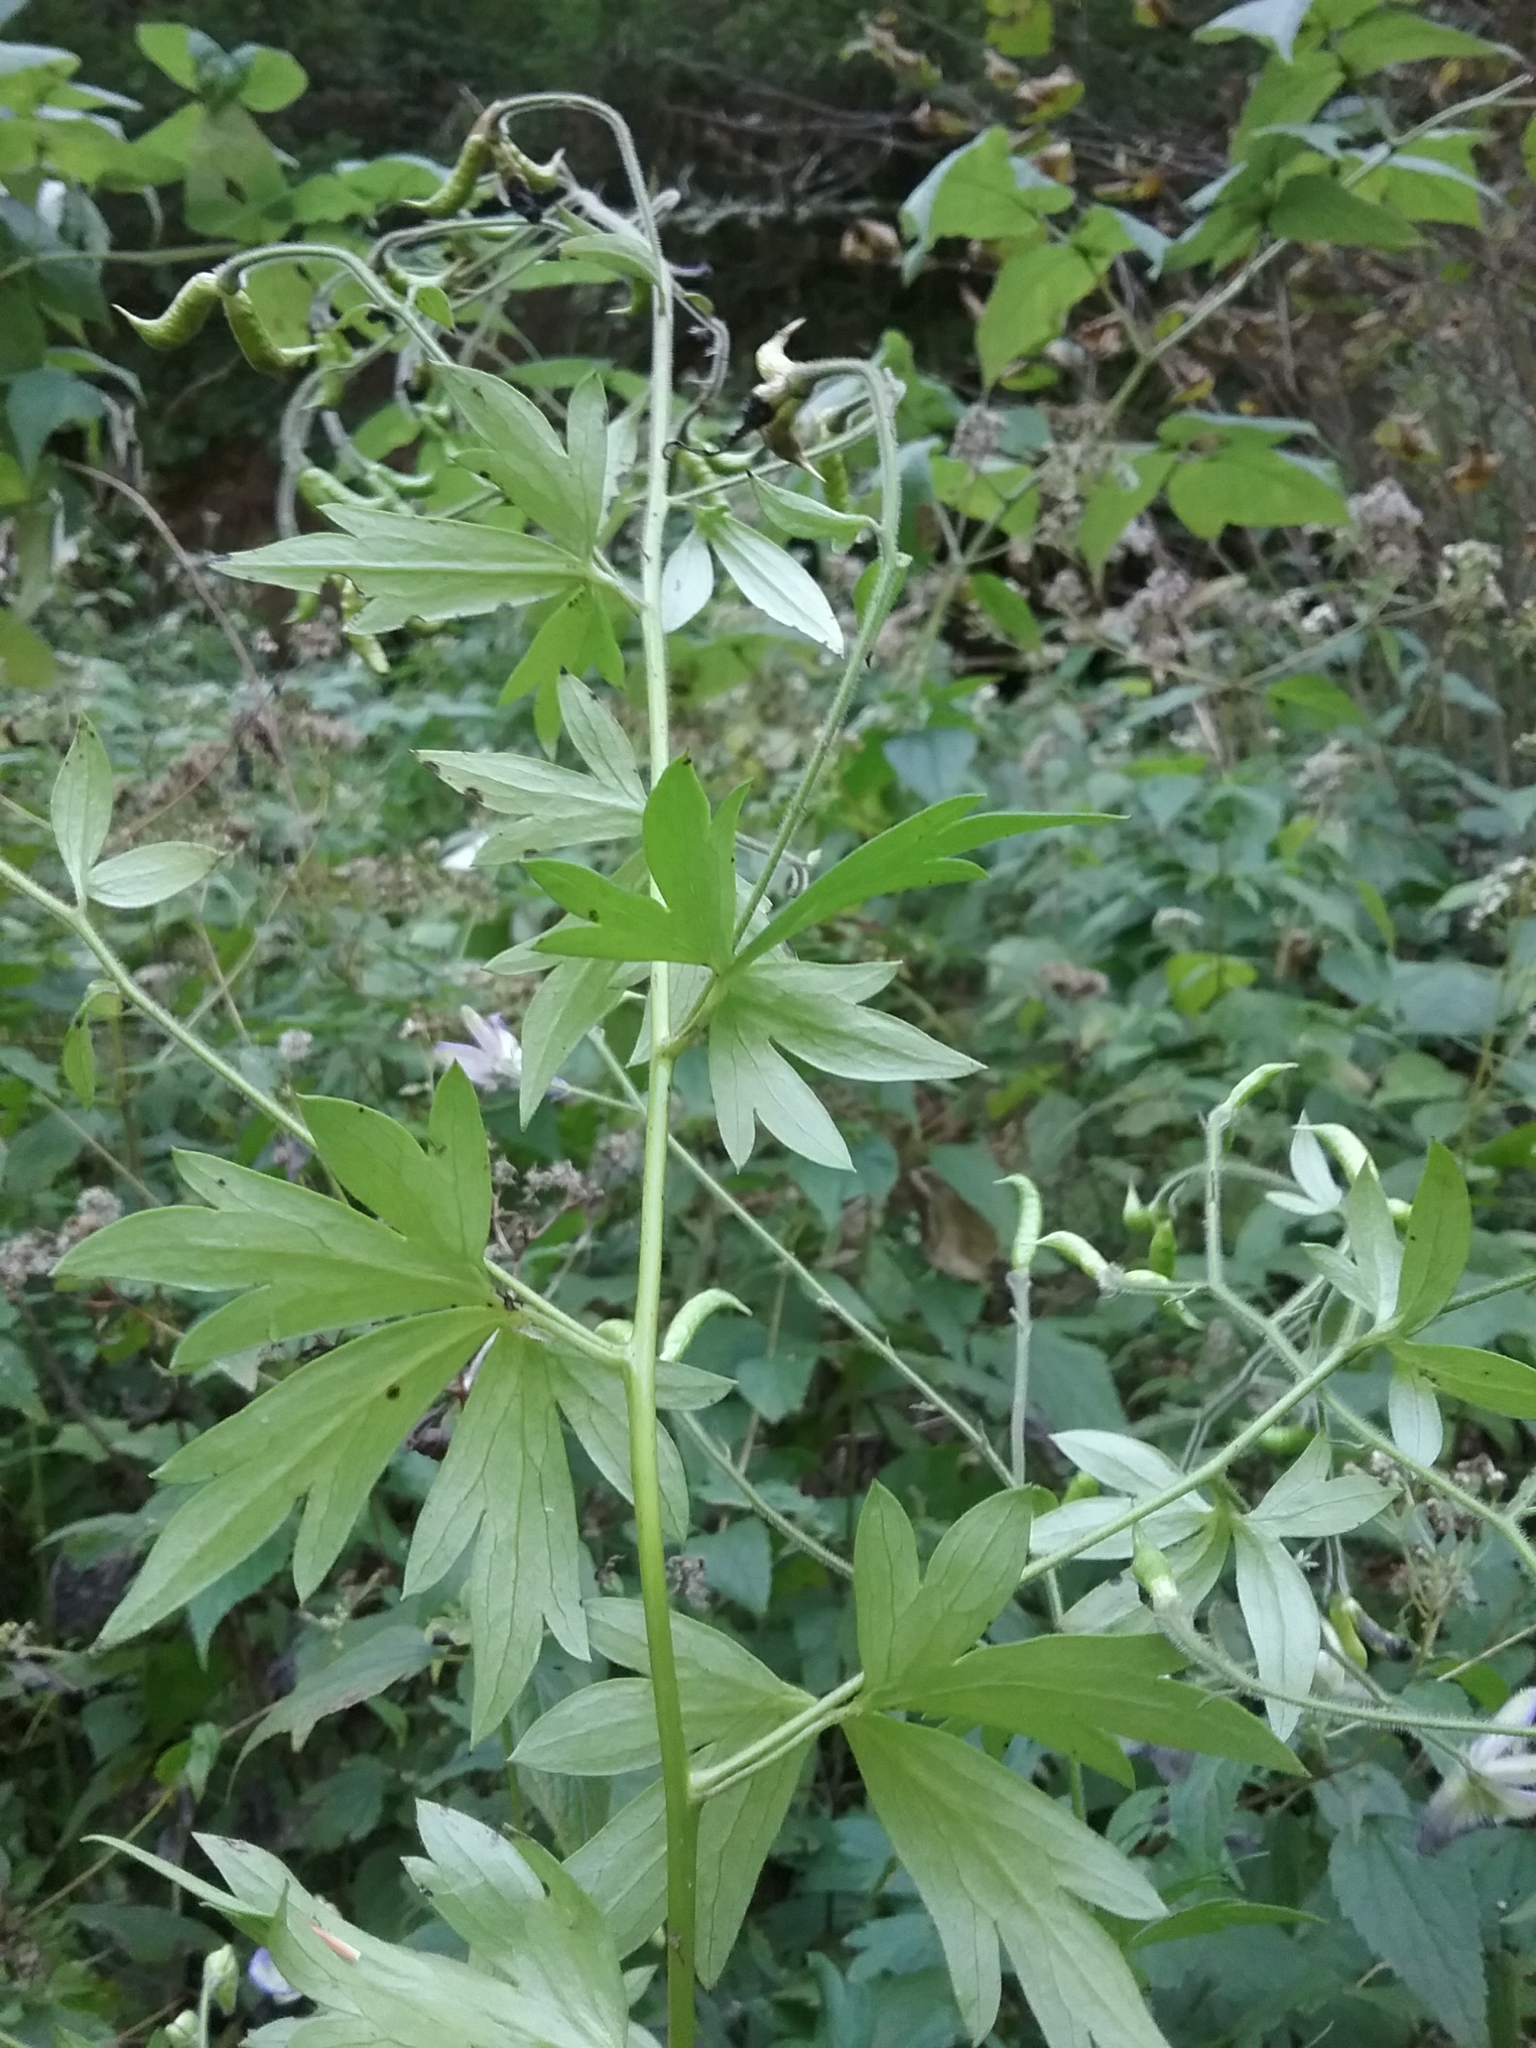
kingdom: Plantae
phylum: Tracheophyta
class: Magnoliopsida
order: Ranunculales
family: Ranunculaceae
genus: Aconitum
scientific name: Aconitum noveboracense
